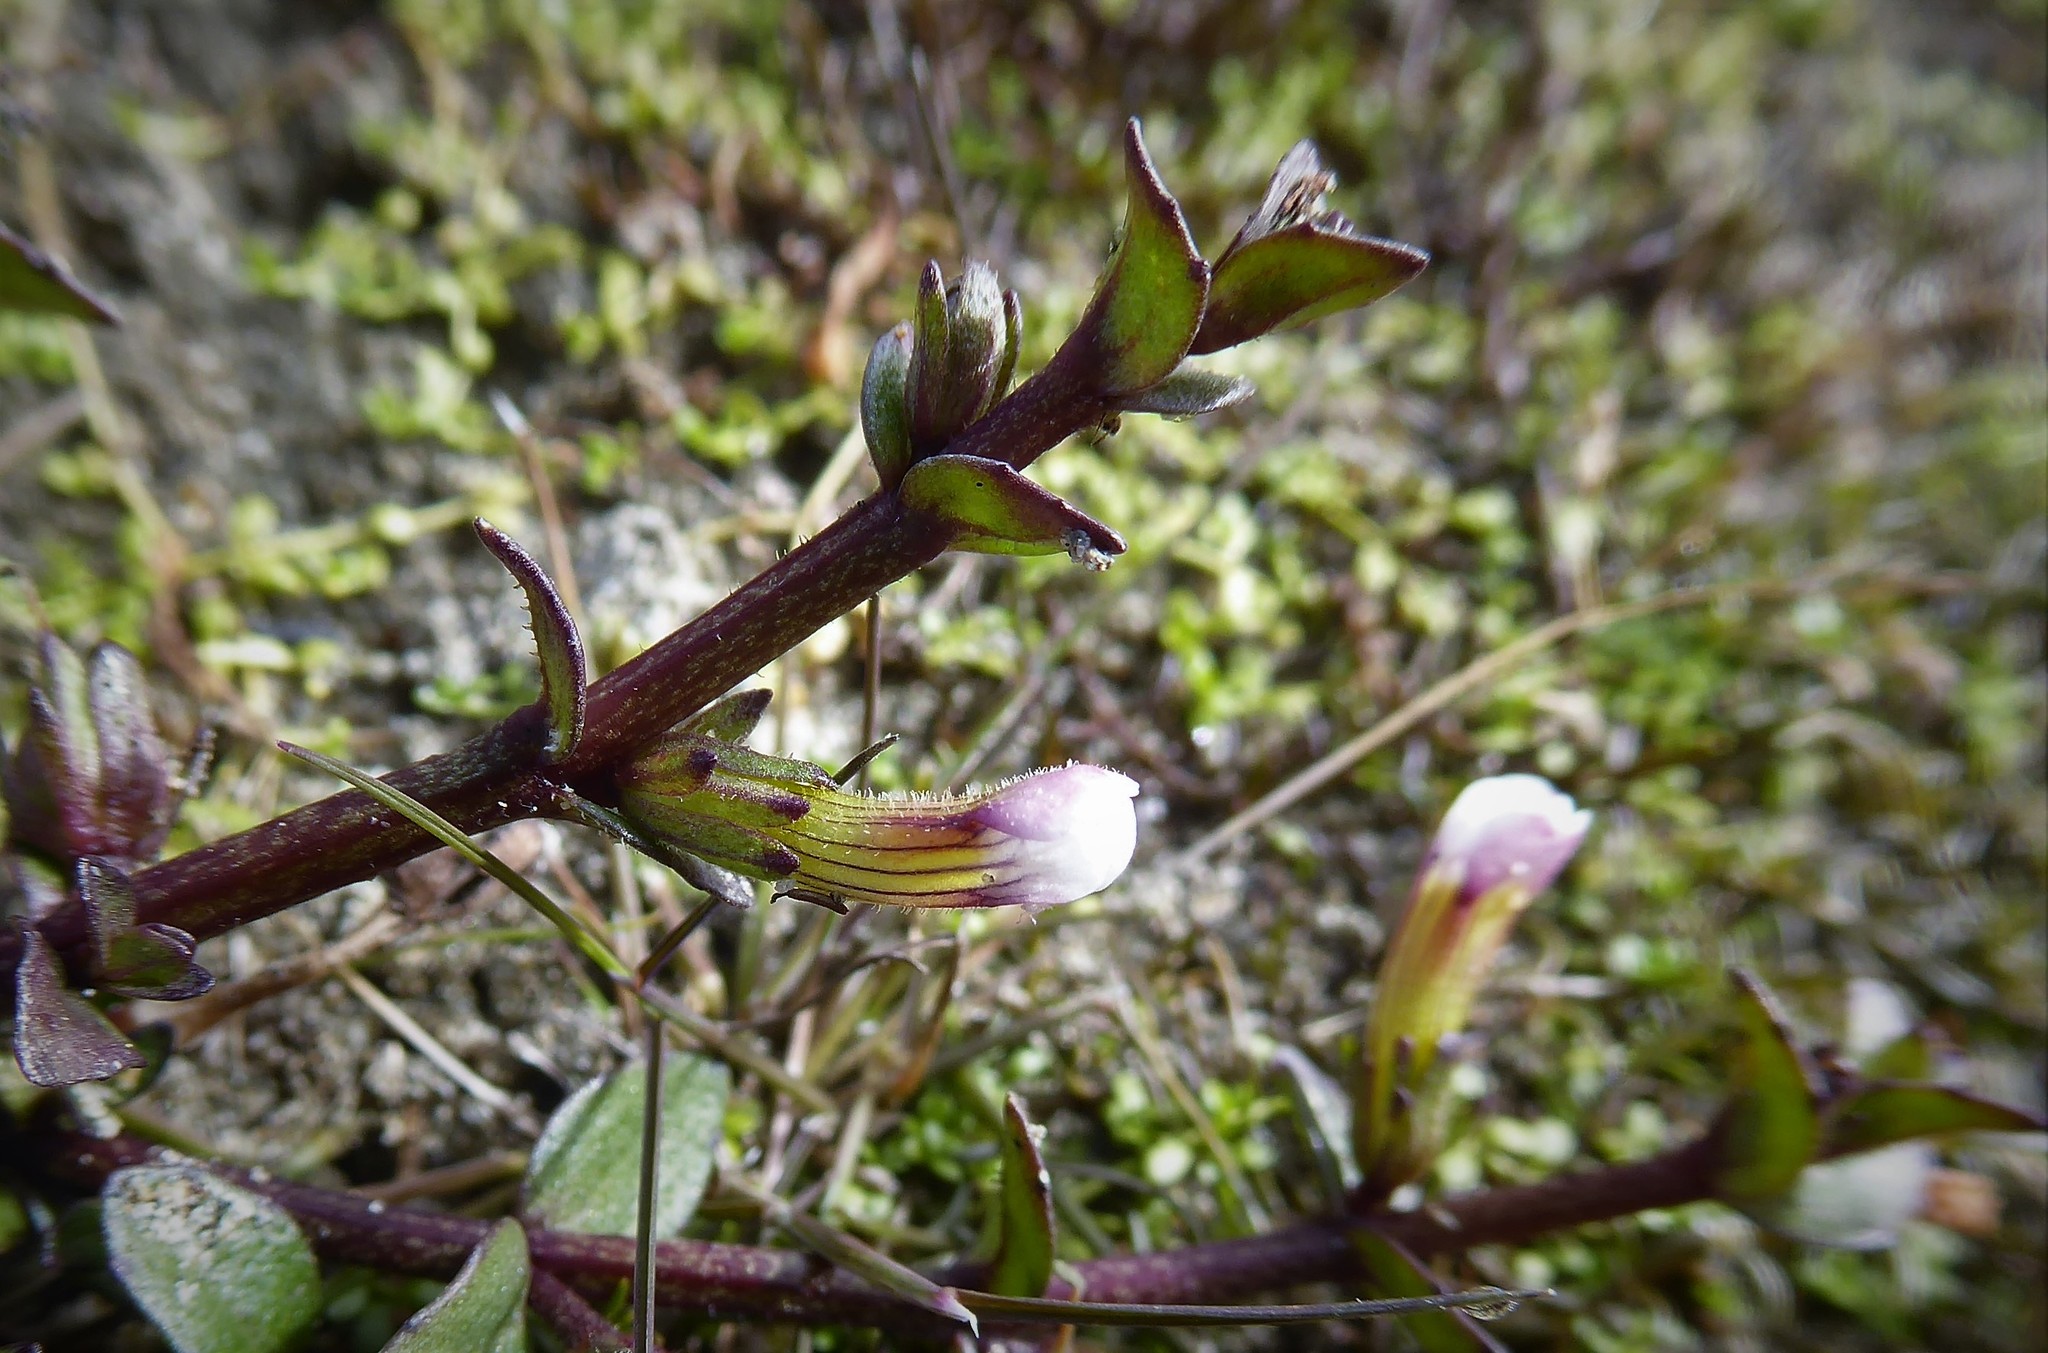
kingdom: Plantae
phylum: Tracheophyta
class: Magnoliopsida
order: Lamiales
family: Plantaginaceae
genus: Gratiola
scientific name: Gratiola sexdentata
